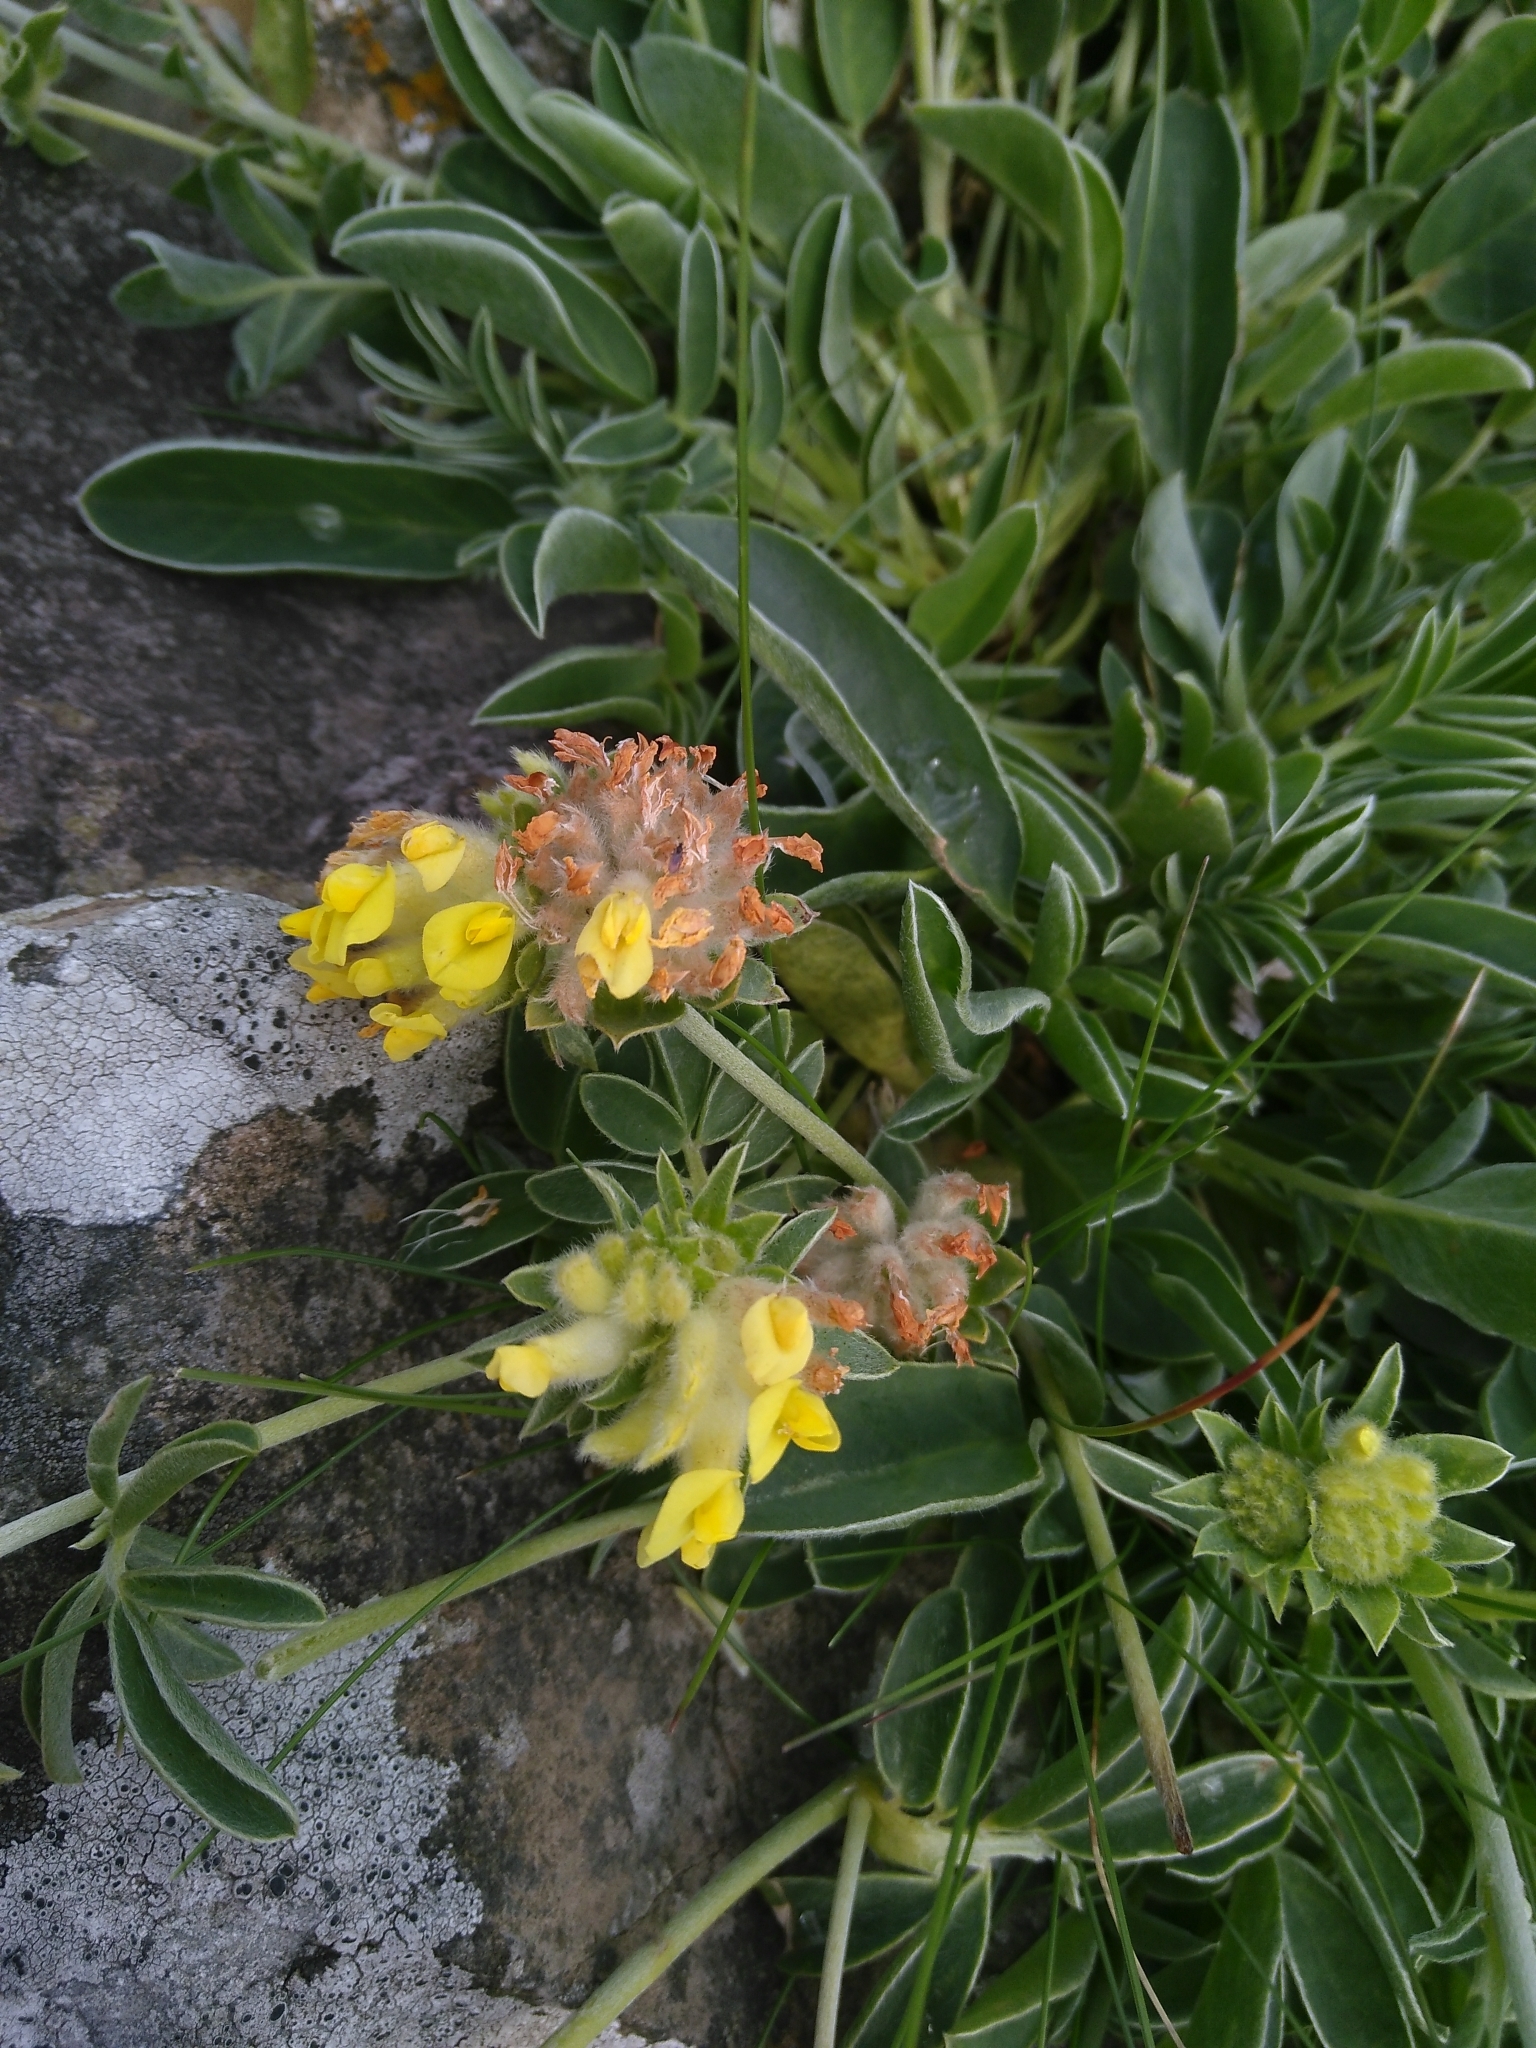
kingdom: Plantae
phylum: Tracheophyta
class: Magnoliopsida
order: Fabales
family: Fabaceae
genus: Anthyllis
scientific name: Anthyllis vulneraria
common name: Kidney vetch
